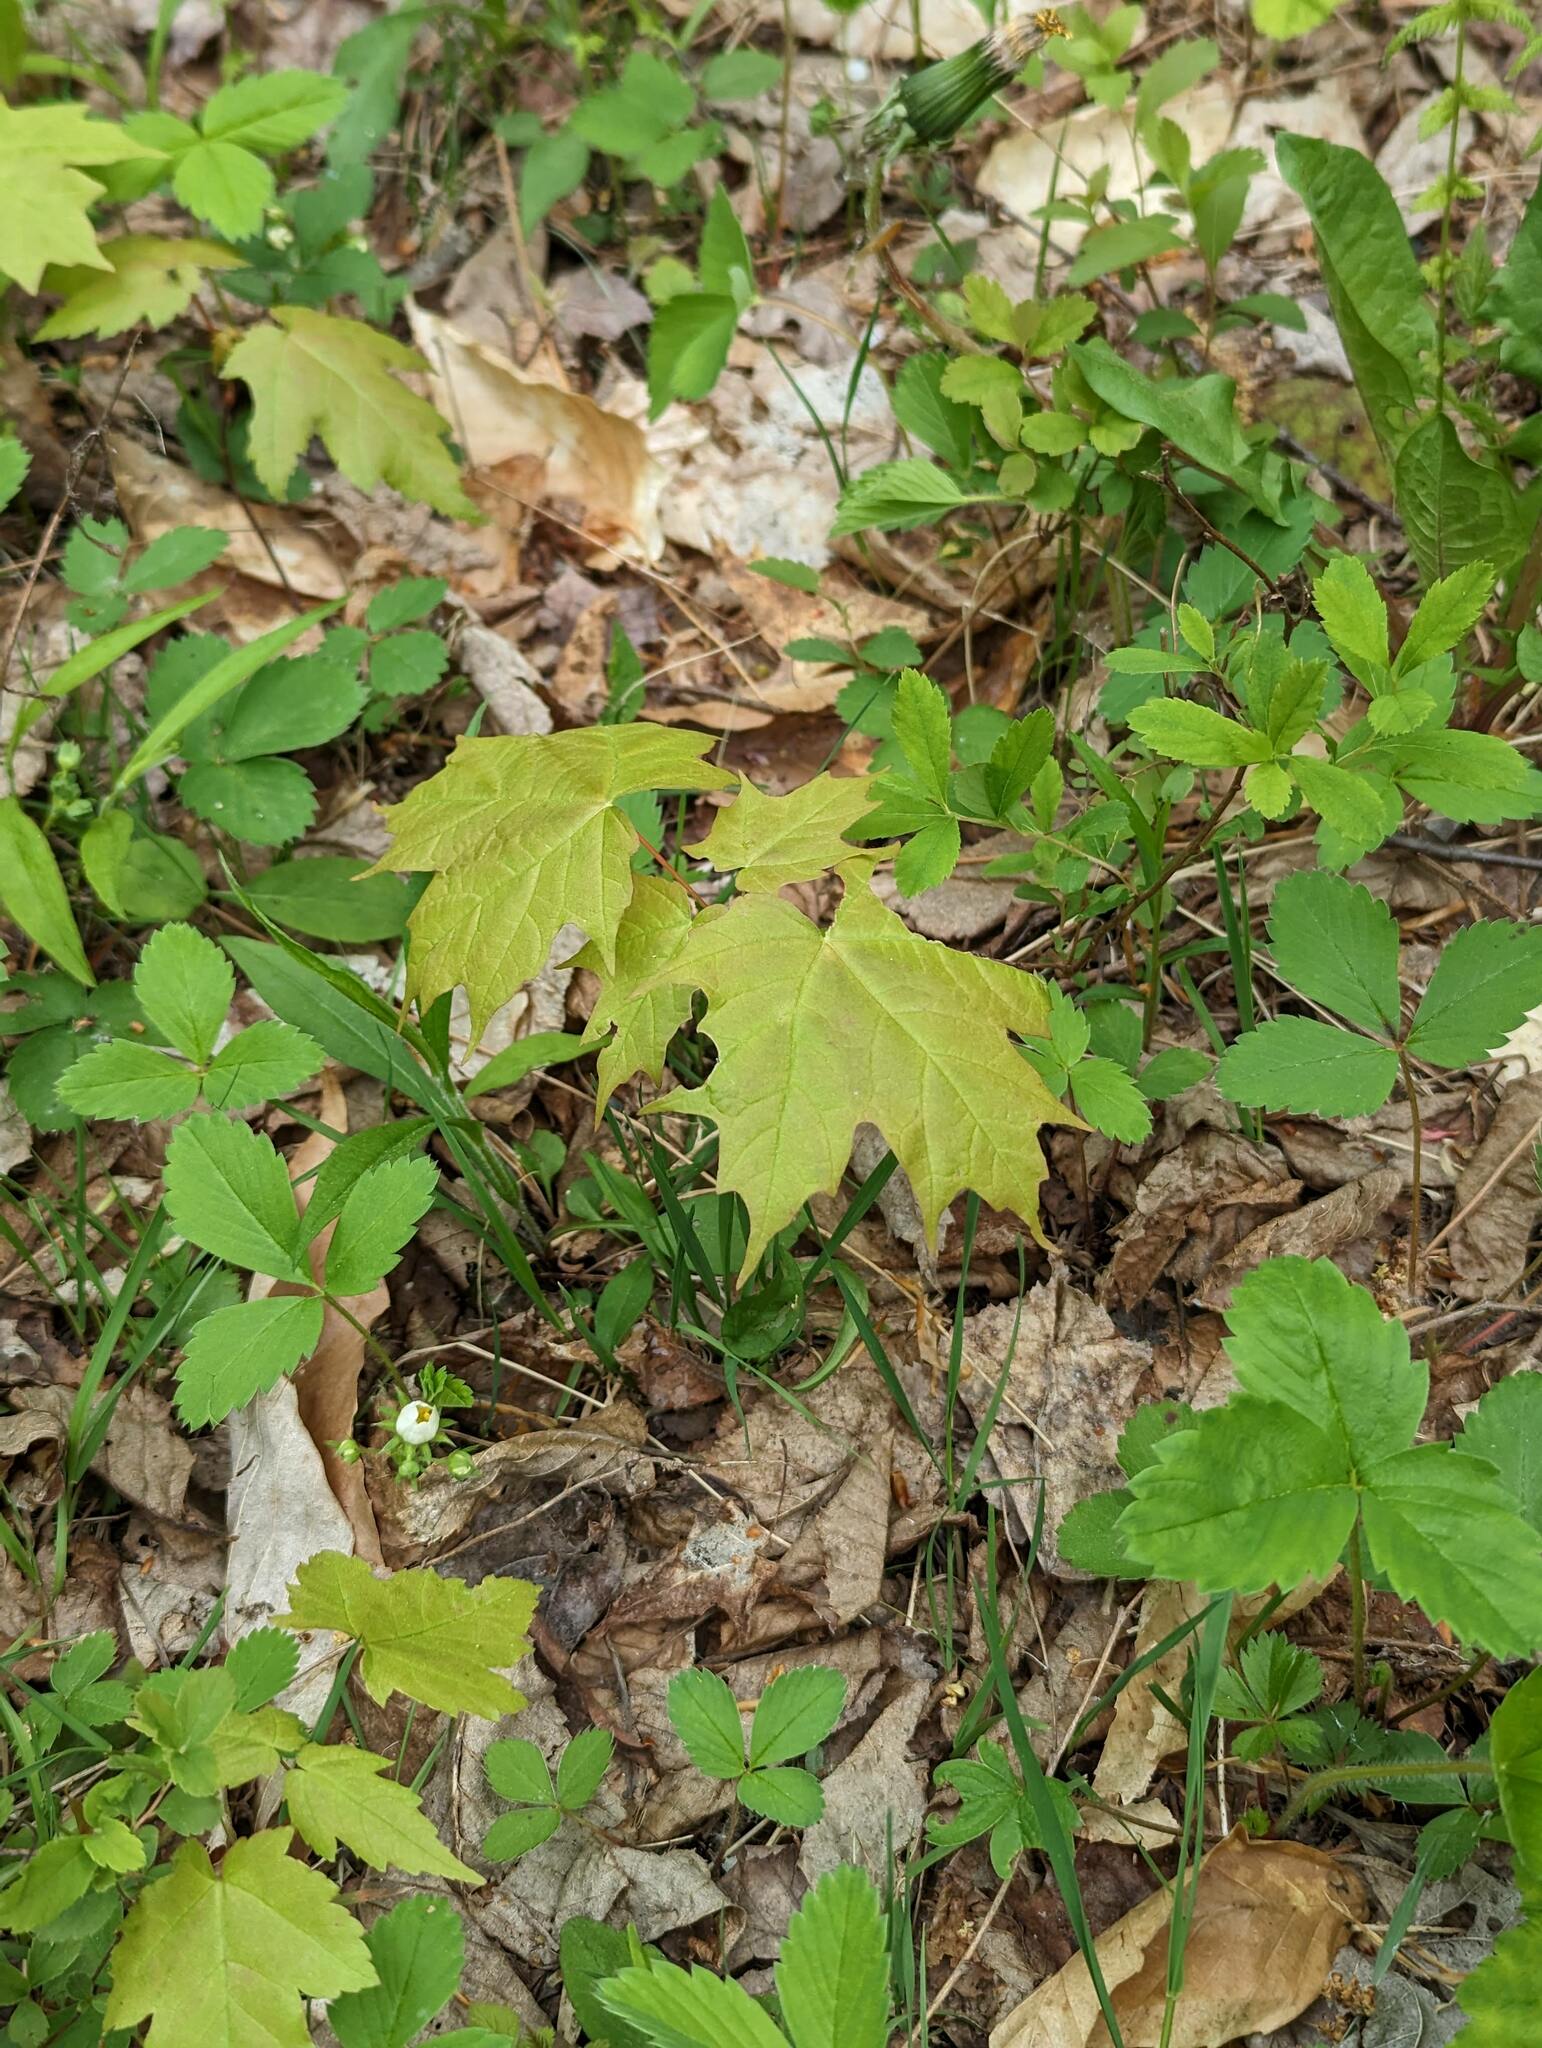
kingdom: Plantae
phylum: Tracheophyta
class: Magnoliopsida
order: Sapindales
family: Sapindaceae
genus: Acer
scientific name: Acer saccharum
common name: Sugar maple
